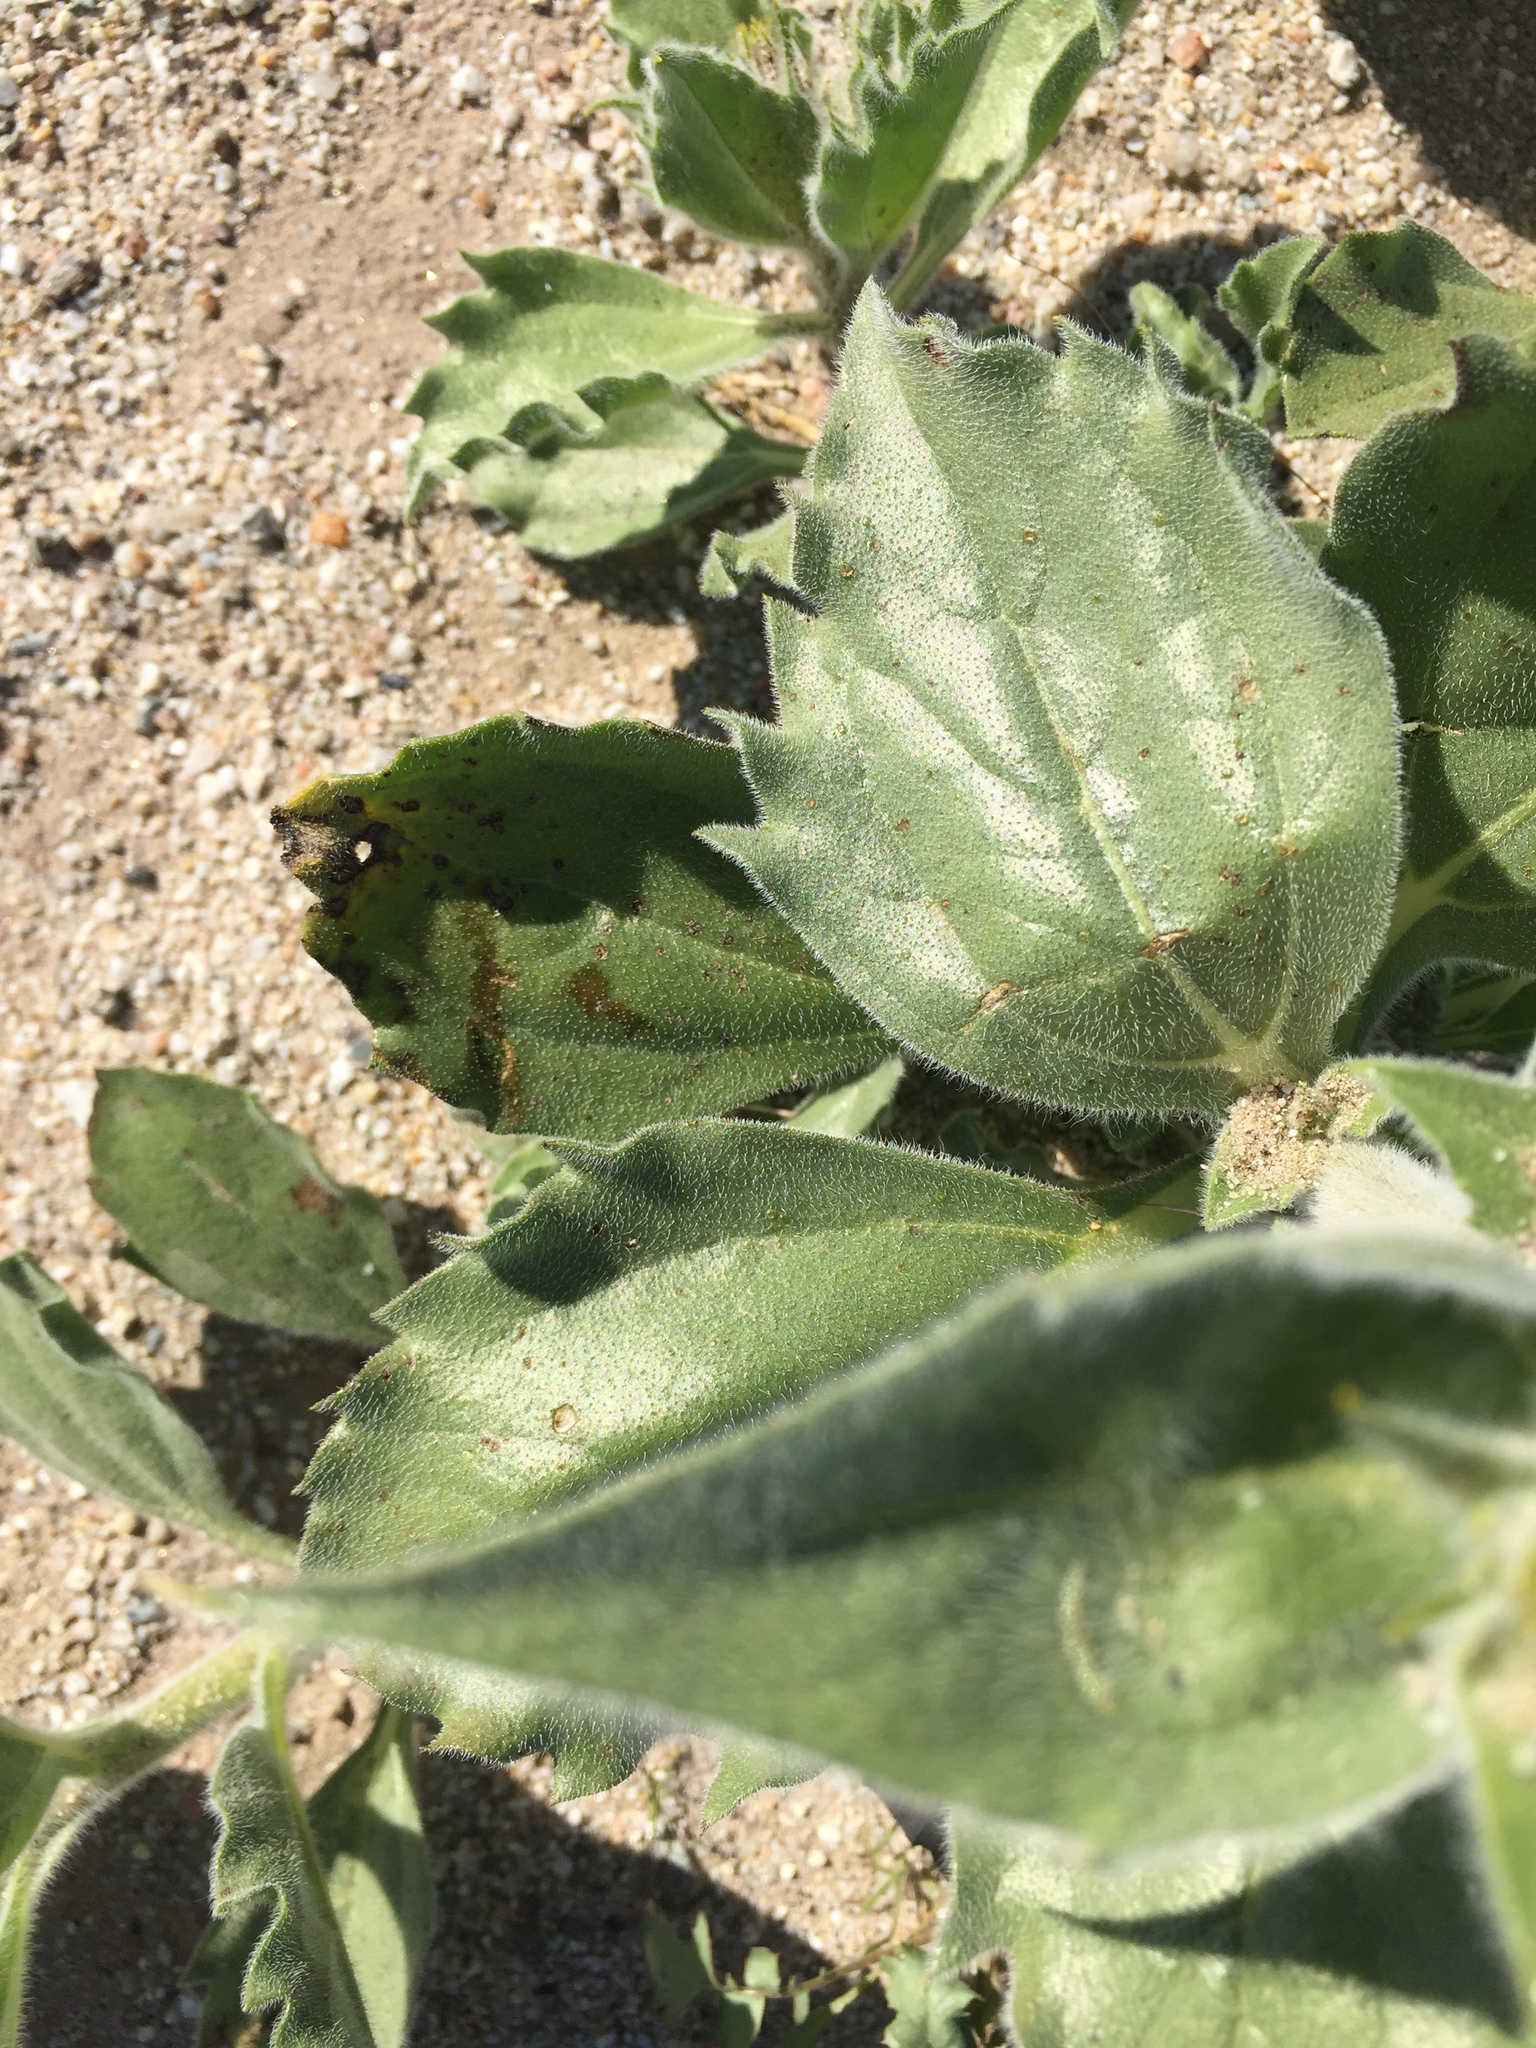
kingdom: Plantae
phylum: Tracheophyta
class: Magnoliopsida
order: Asterales
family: Asteraceae
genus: Geraea
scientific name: Geraea canescens
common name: Desert-gold
